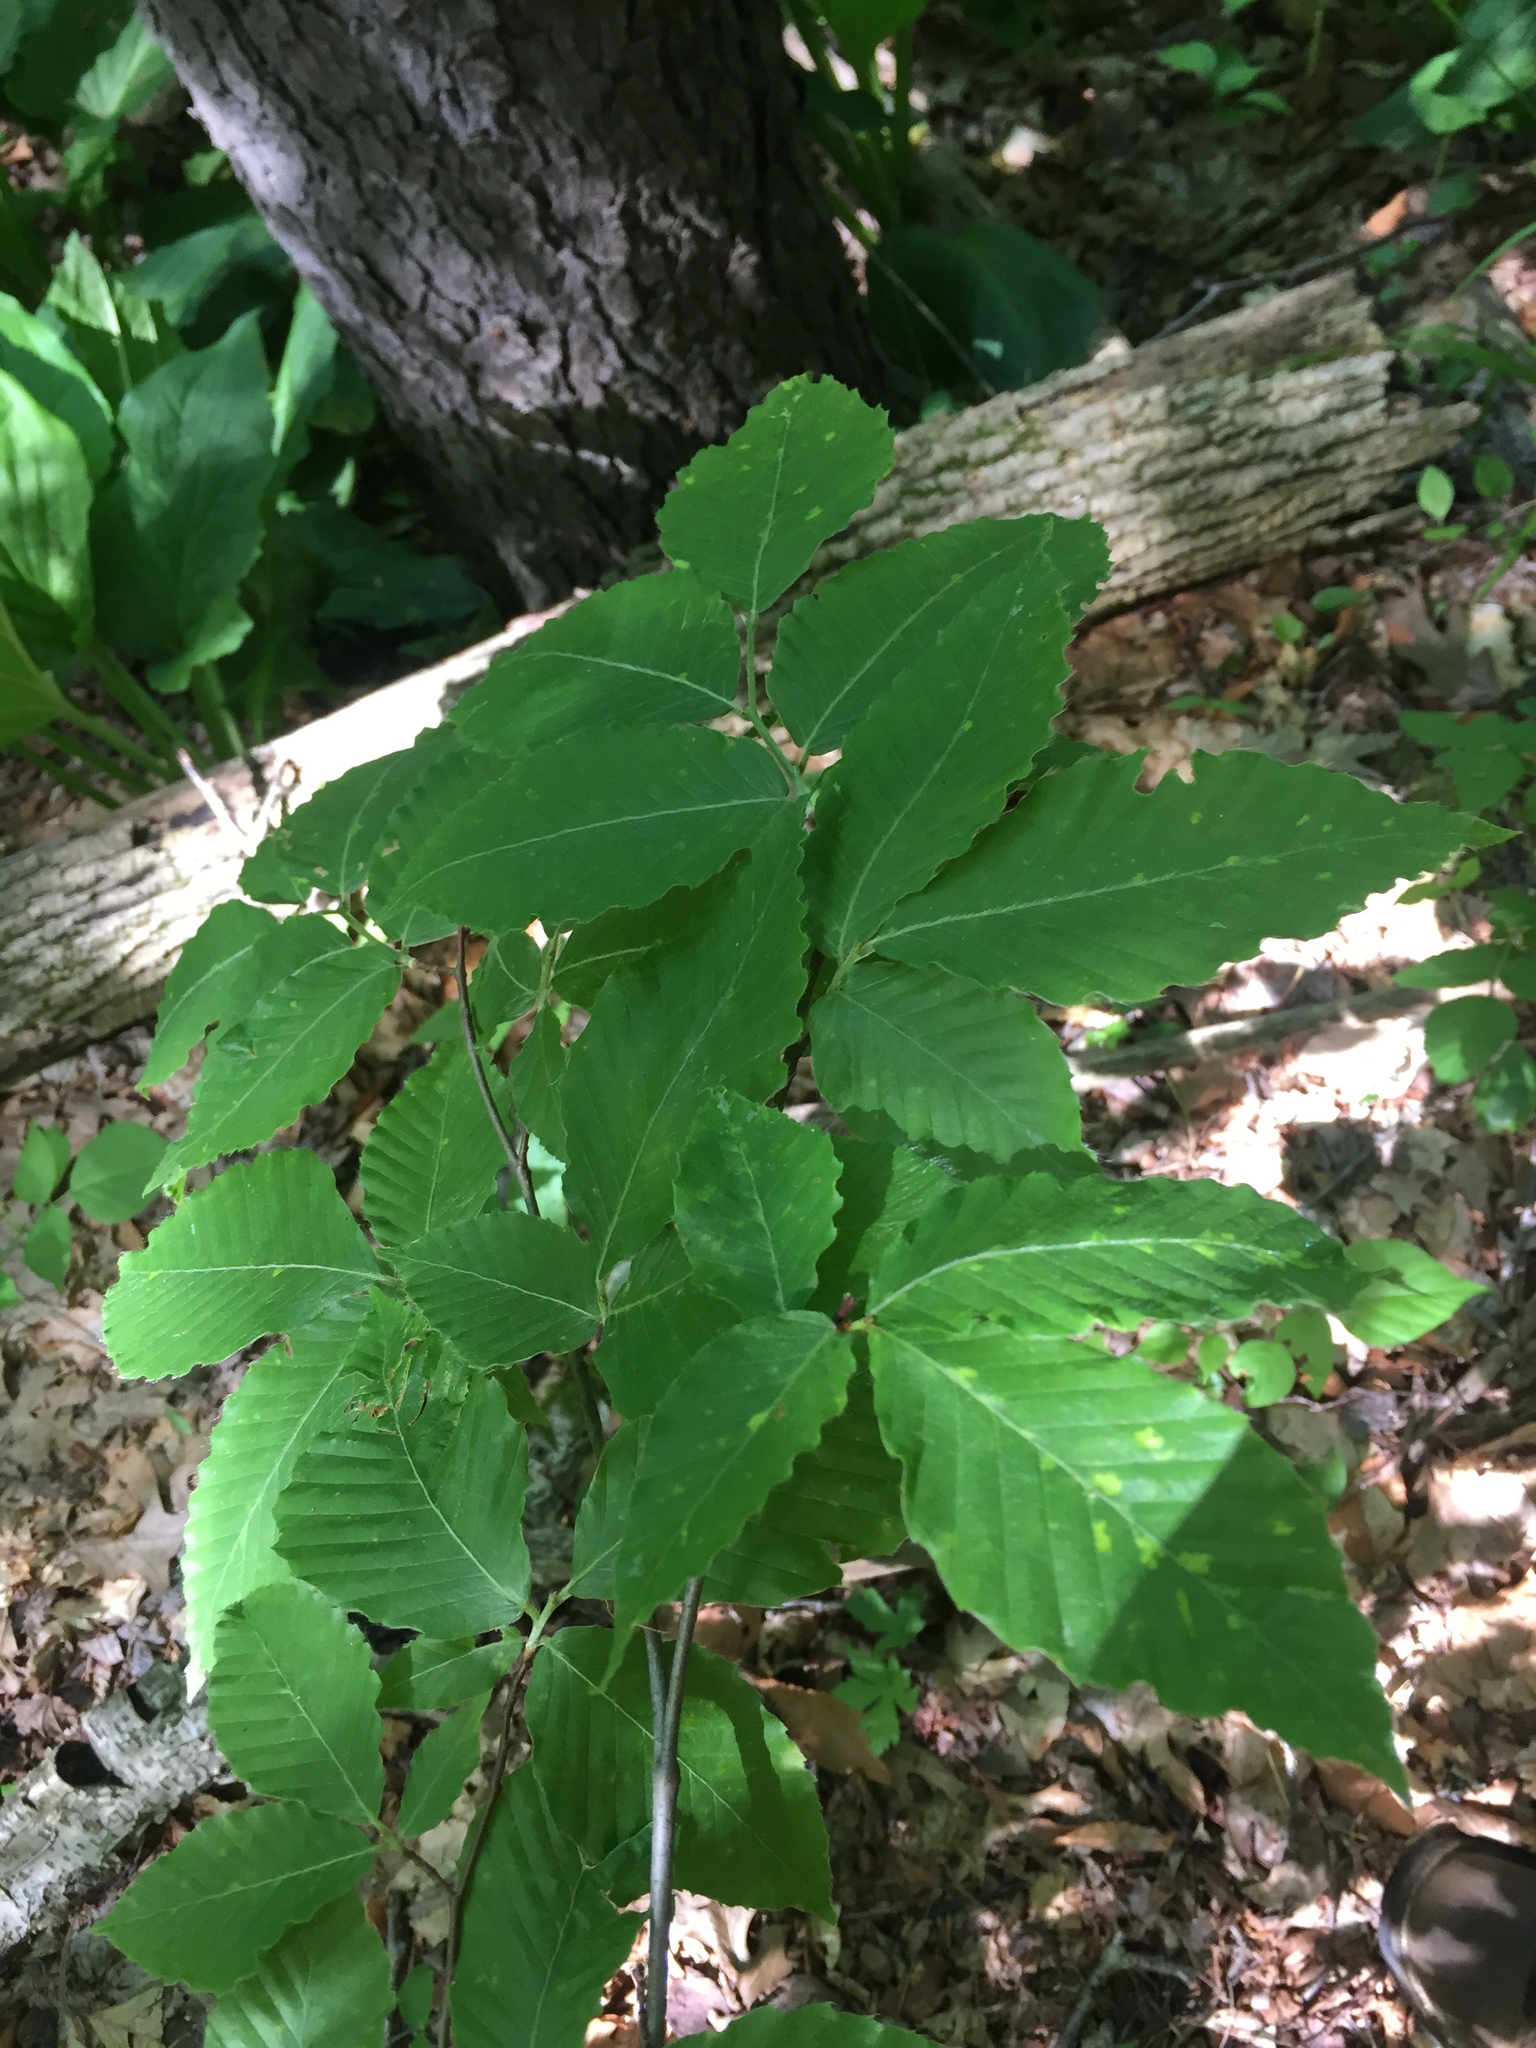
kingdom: Plantae
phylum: Tracheophyta
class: Magnoliopsida
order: Fagales
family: Fagaceae
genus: Fagus
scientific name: Fagus grandifolia
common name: American beech
